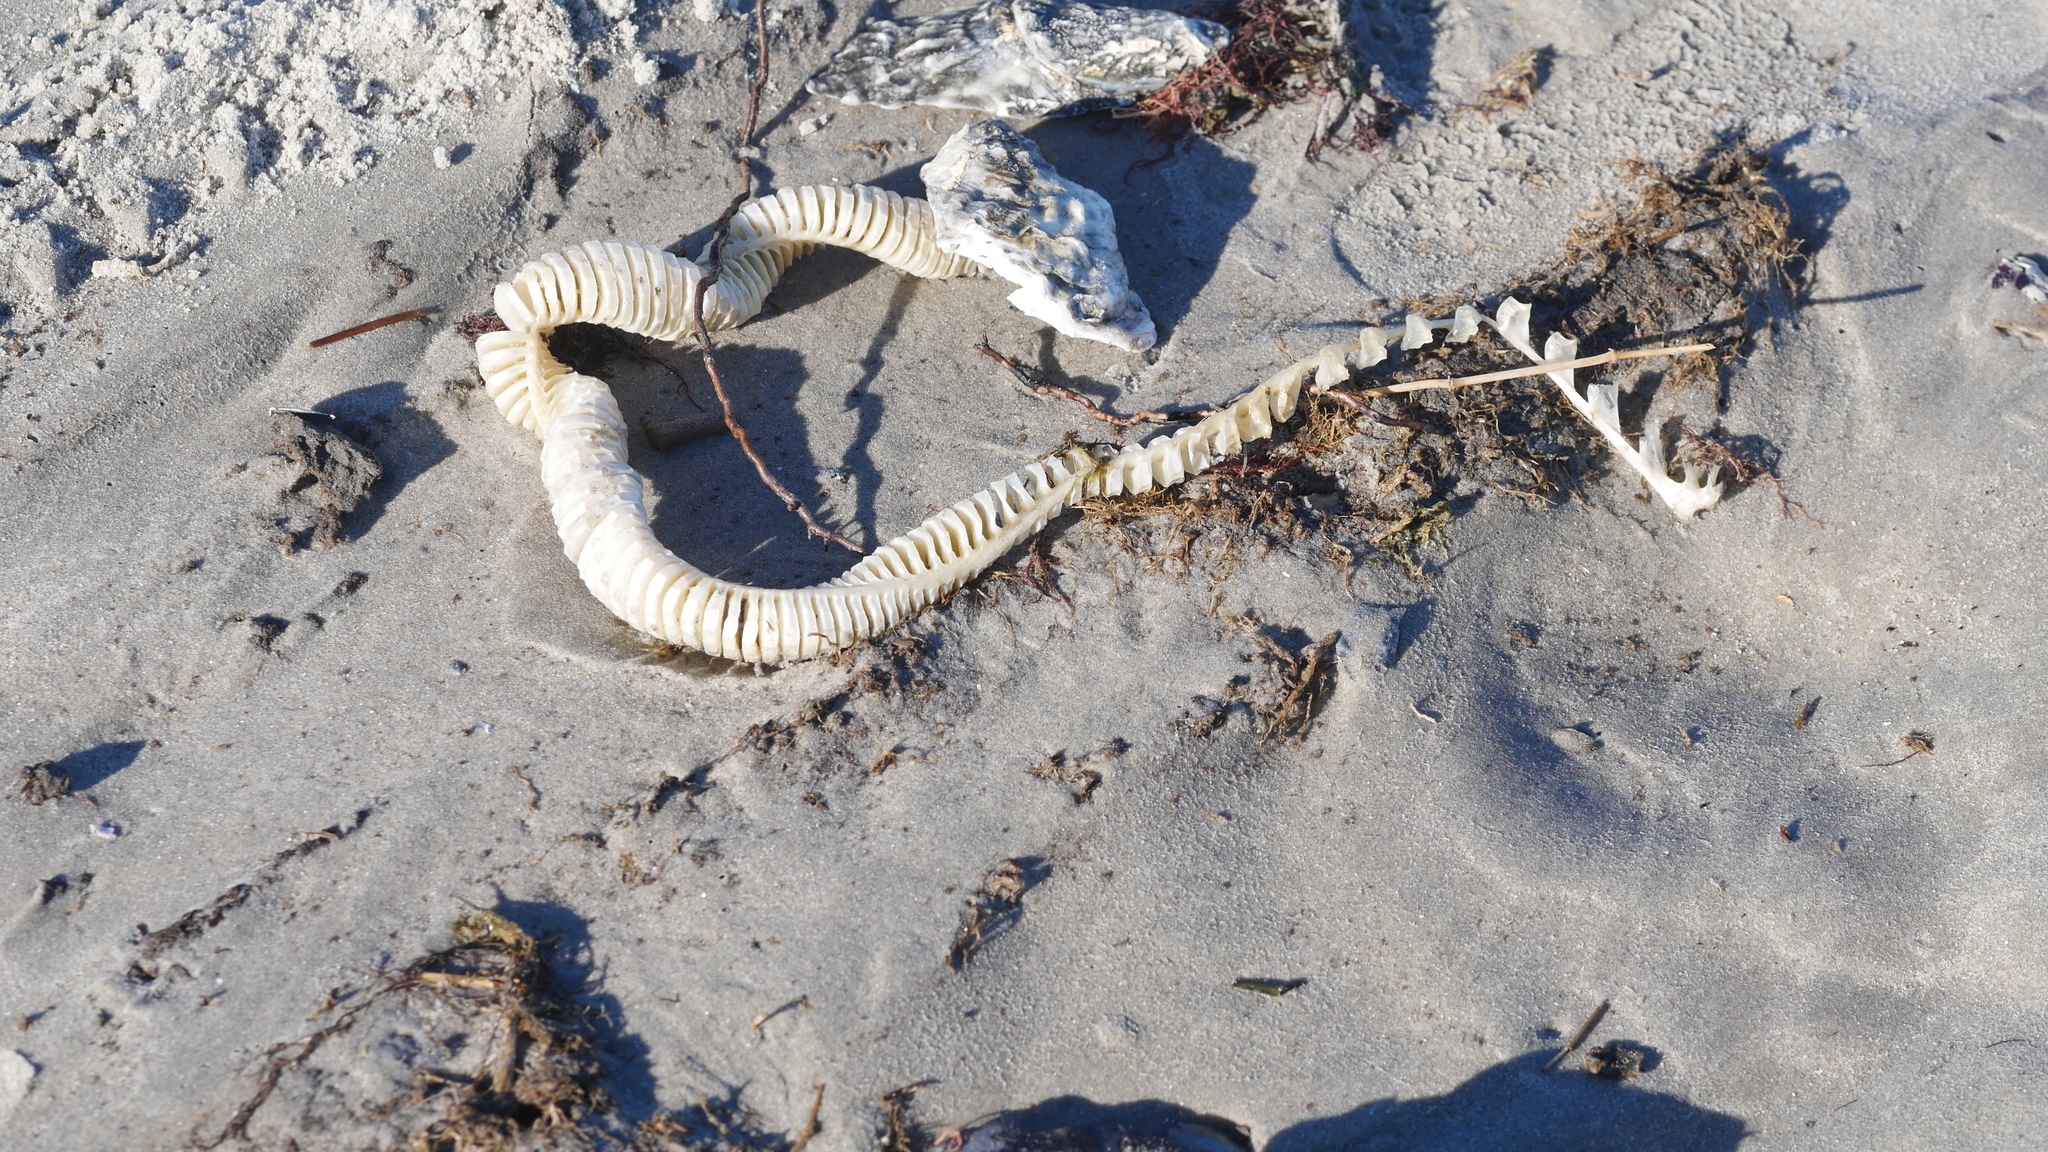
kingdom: Animalia
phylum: Mollusca
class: Gastropoda
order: Neogastropoda
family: Busyconidae
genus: Busycon
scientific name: Busycon carica
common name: Knobbed whelk
